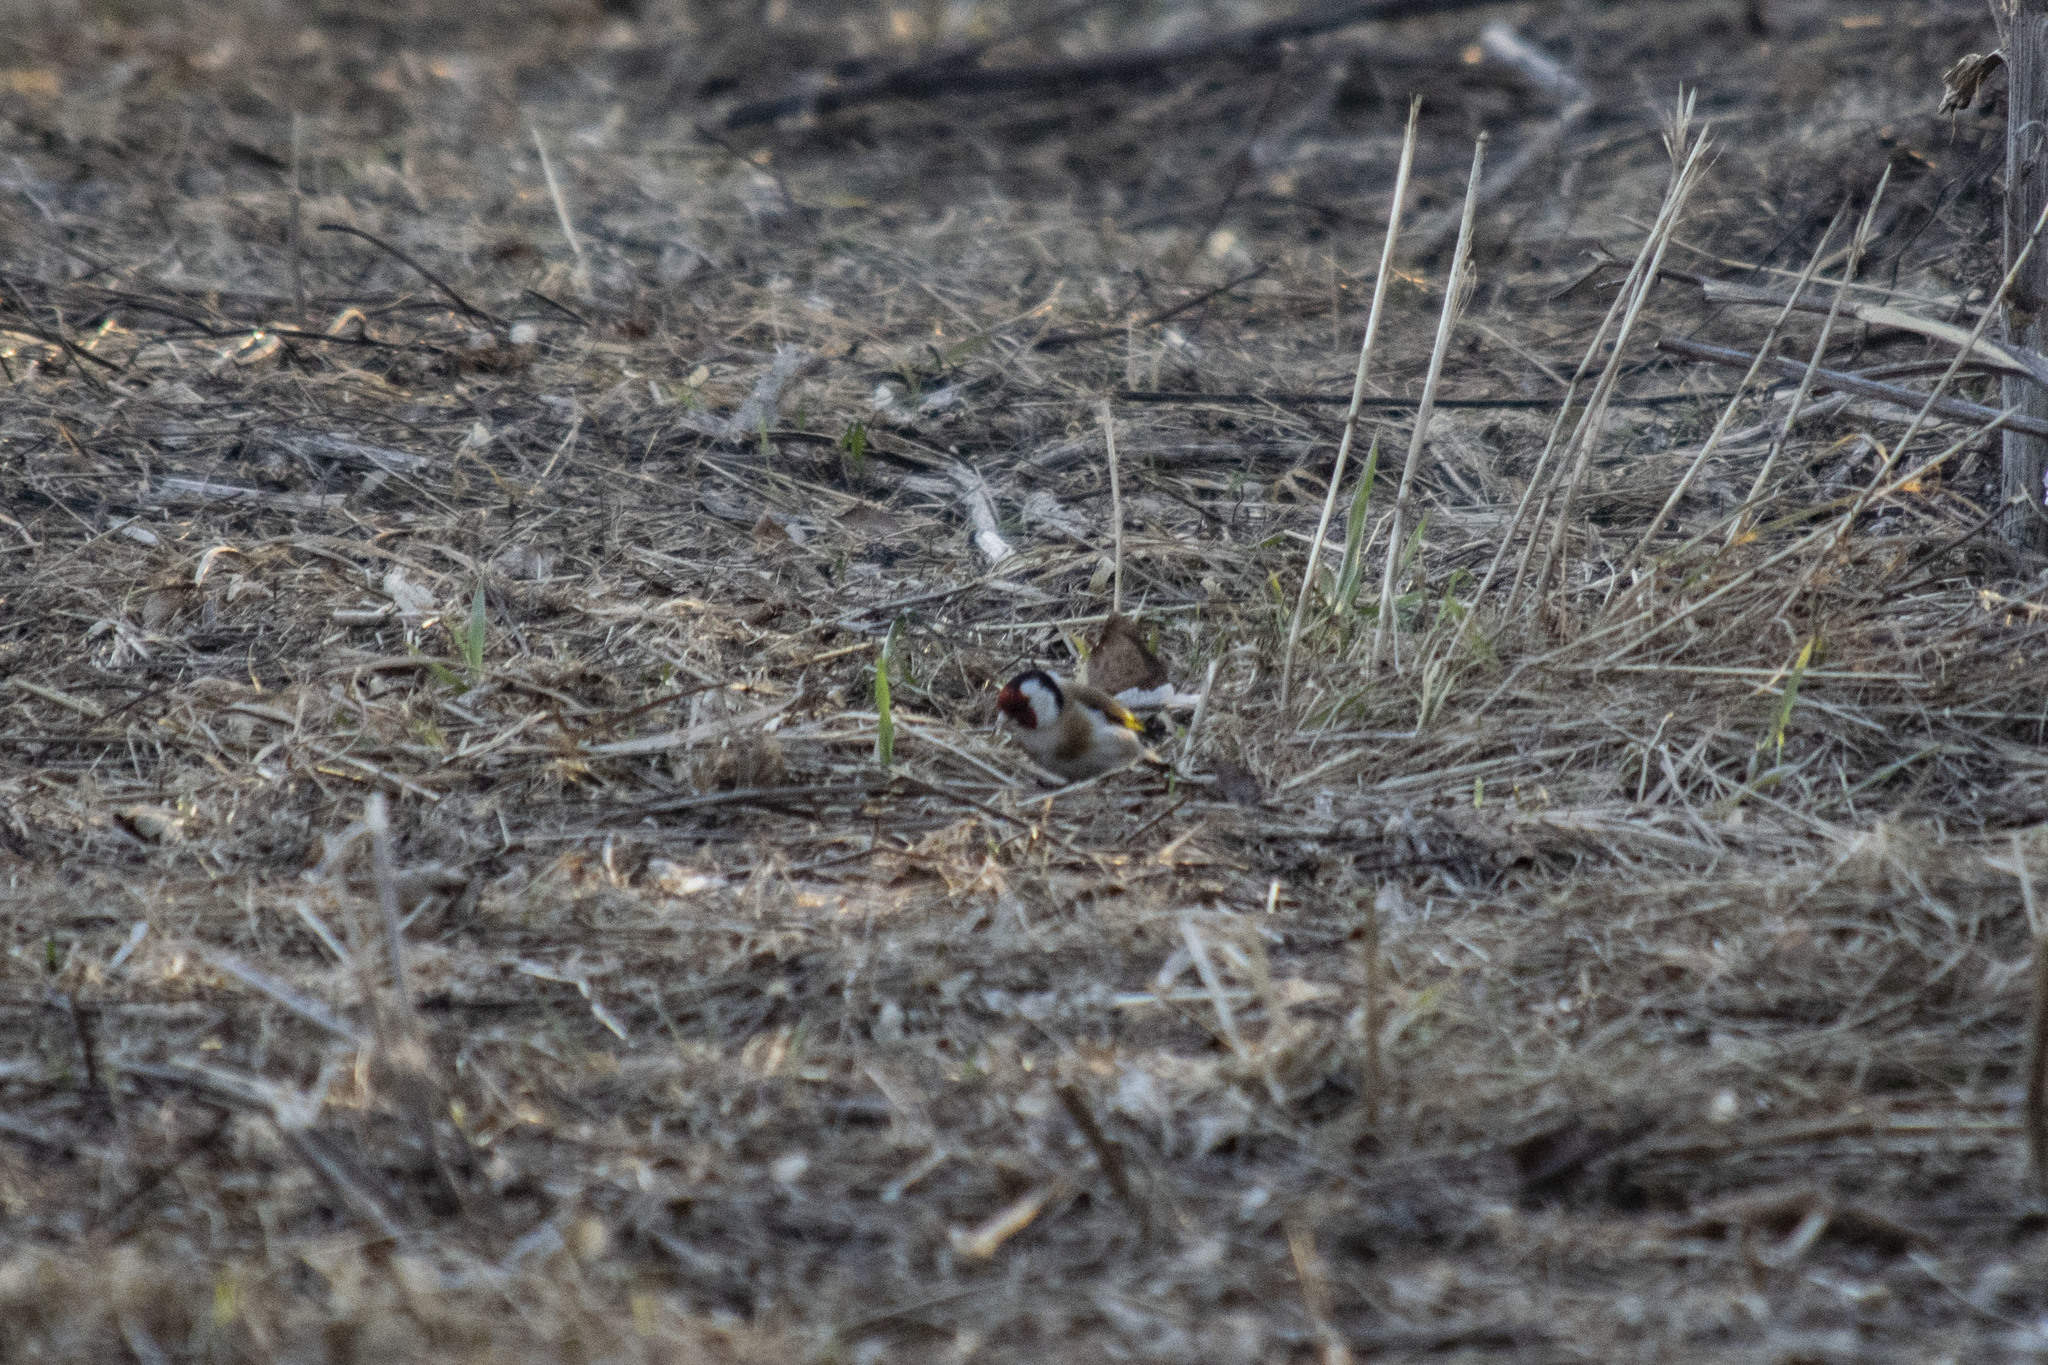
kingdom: Animalia
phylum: Chordata
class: Aves
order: Passeriformes
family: Fringillidae
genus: Carduelis
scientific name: Carduelis carduelis
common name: European goldfinch
